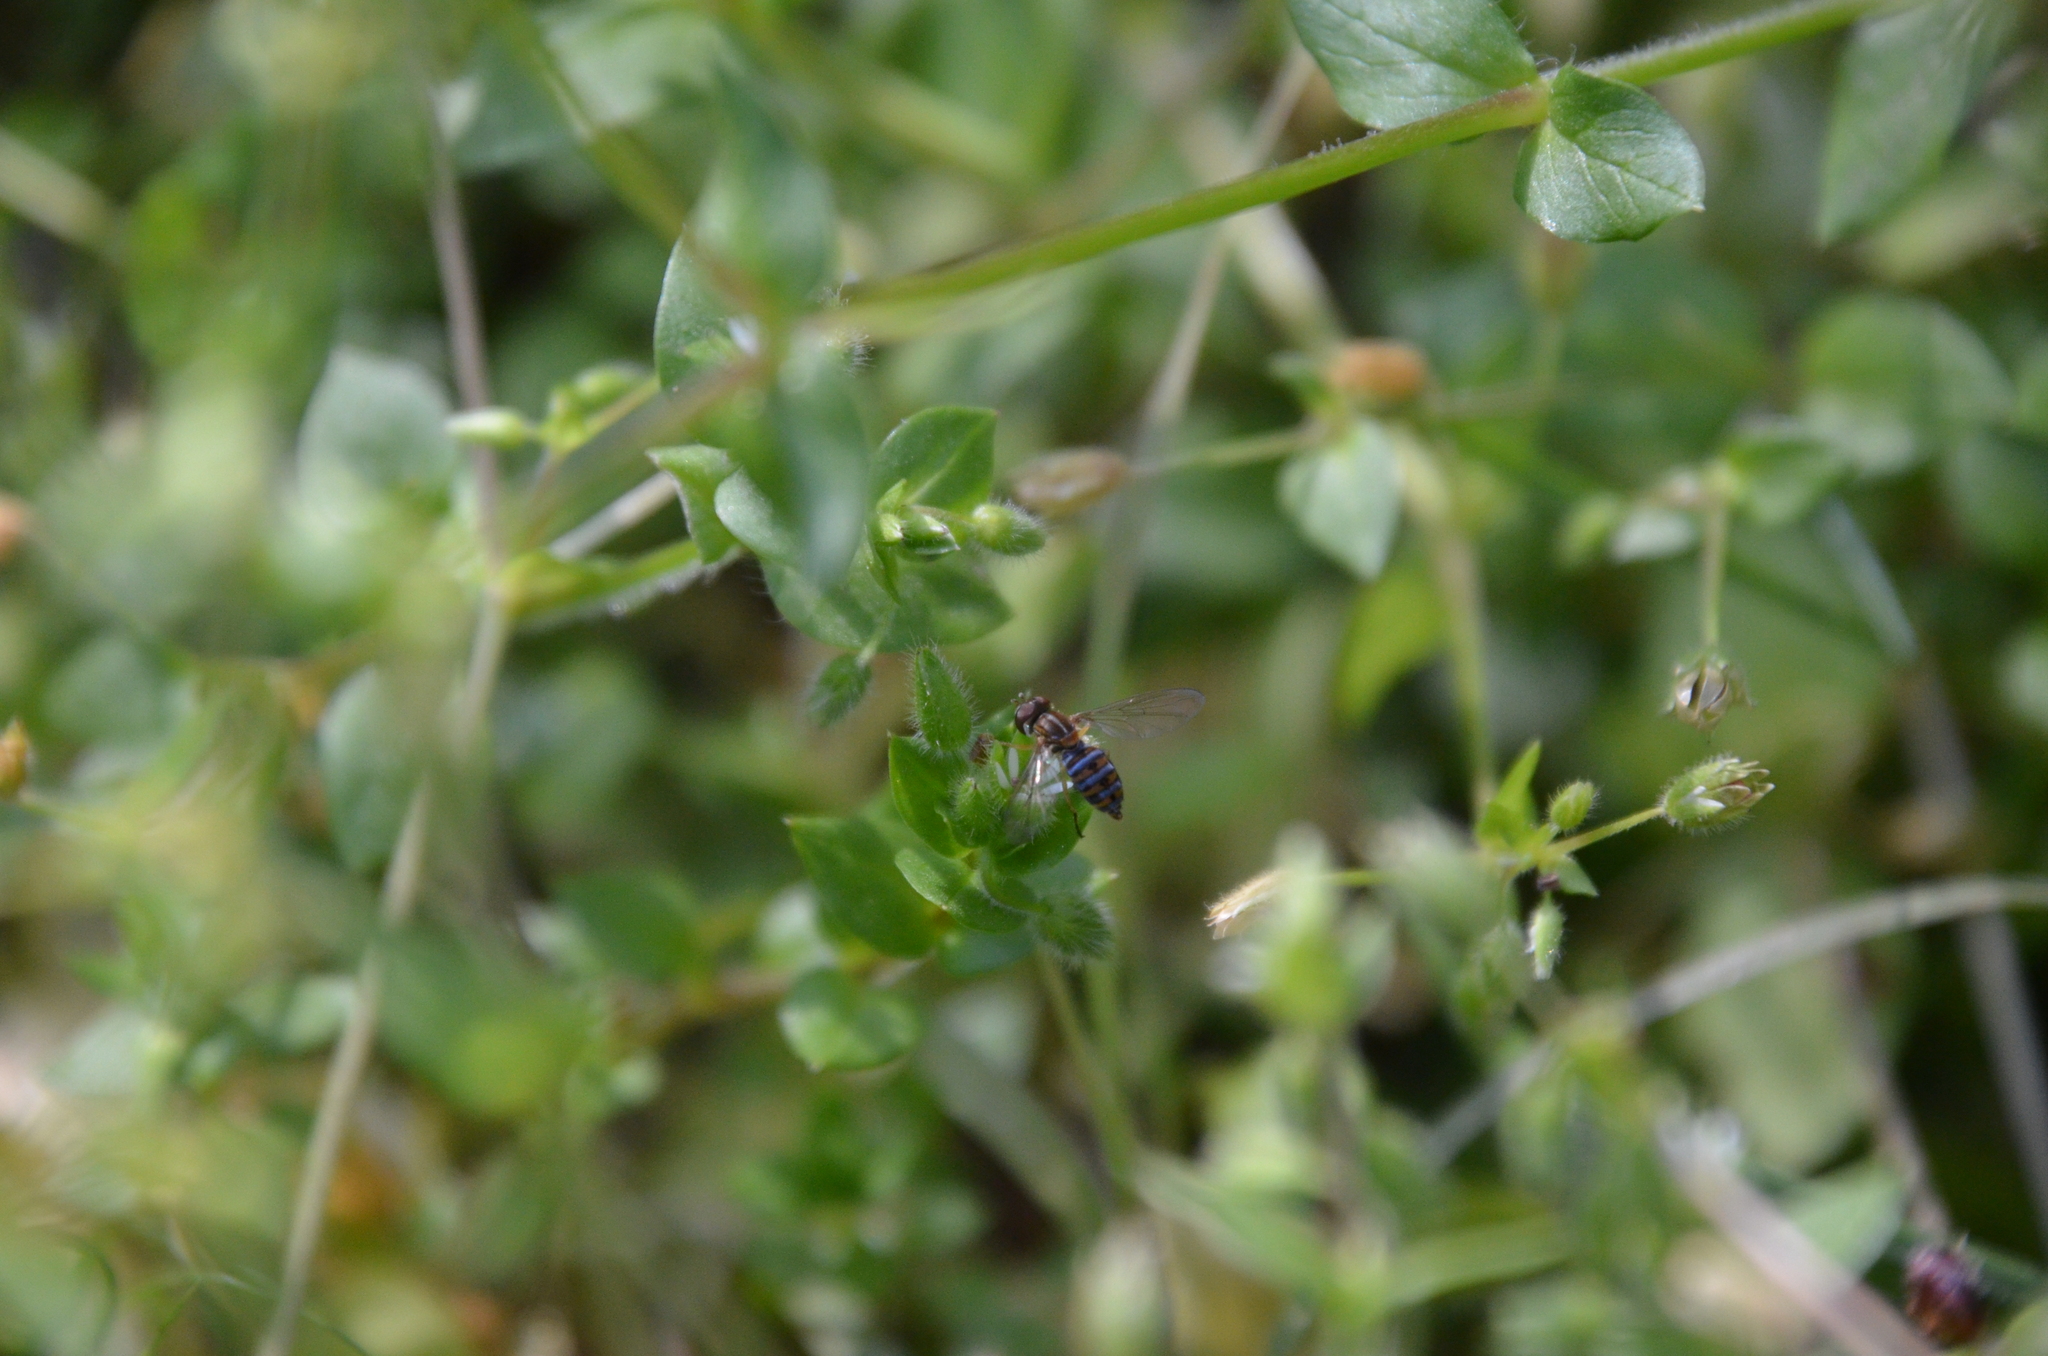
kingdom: Animalia
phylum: Arthropoda
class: Insecta
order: Diptera
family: Syrphidae
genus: Toxomerus
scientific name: Toxomerus
